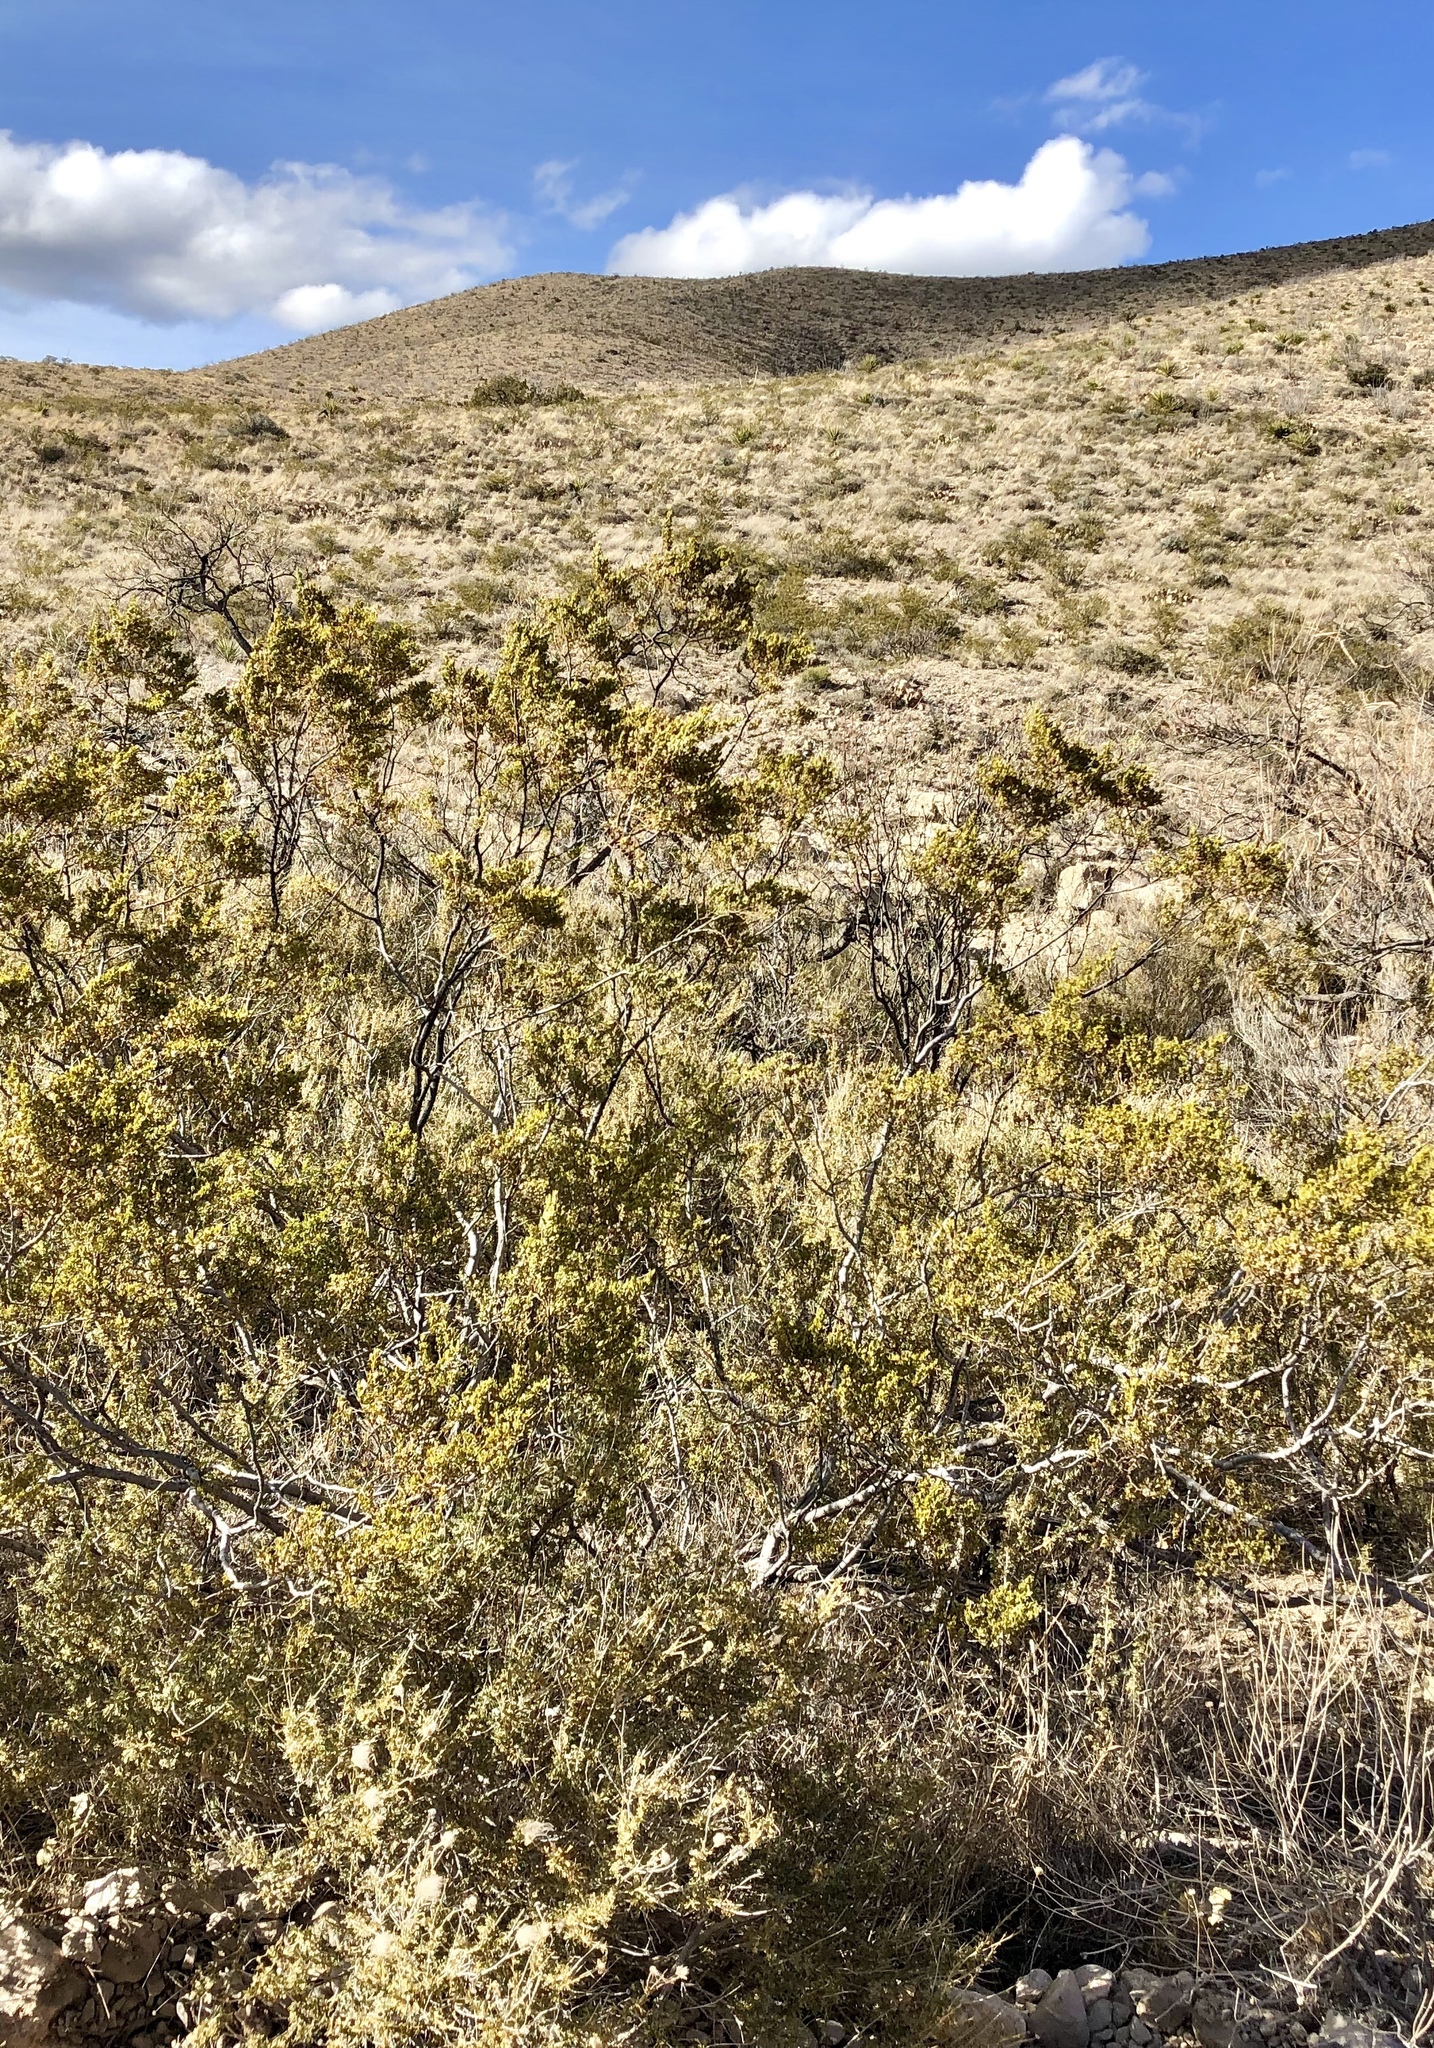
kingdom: Plantae
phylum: Tracheophyta
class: Magnoliopsida
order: Zygophyllales
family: Zygophyllaceae
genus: Larrea
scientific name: Larrea tridentata
